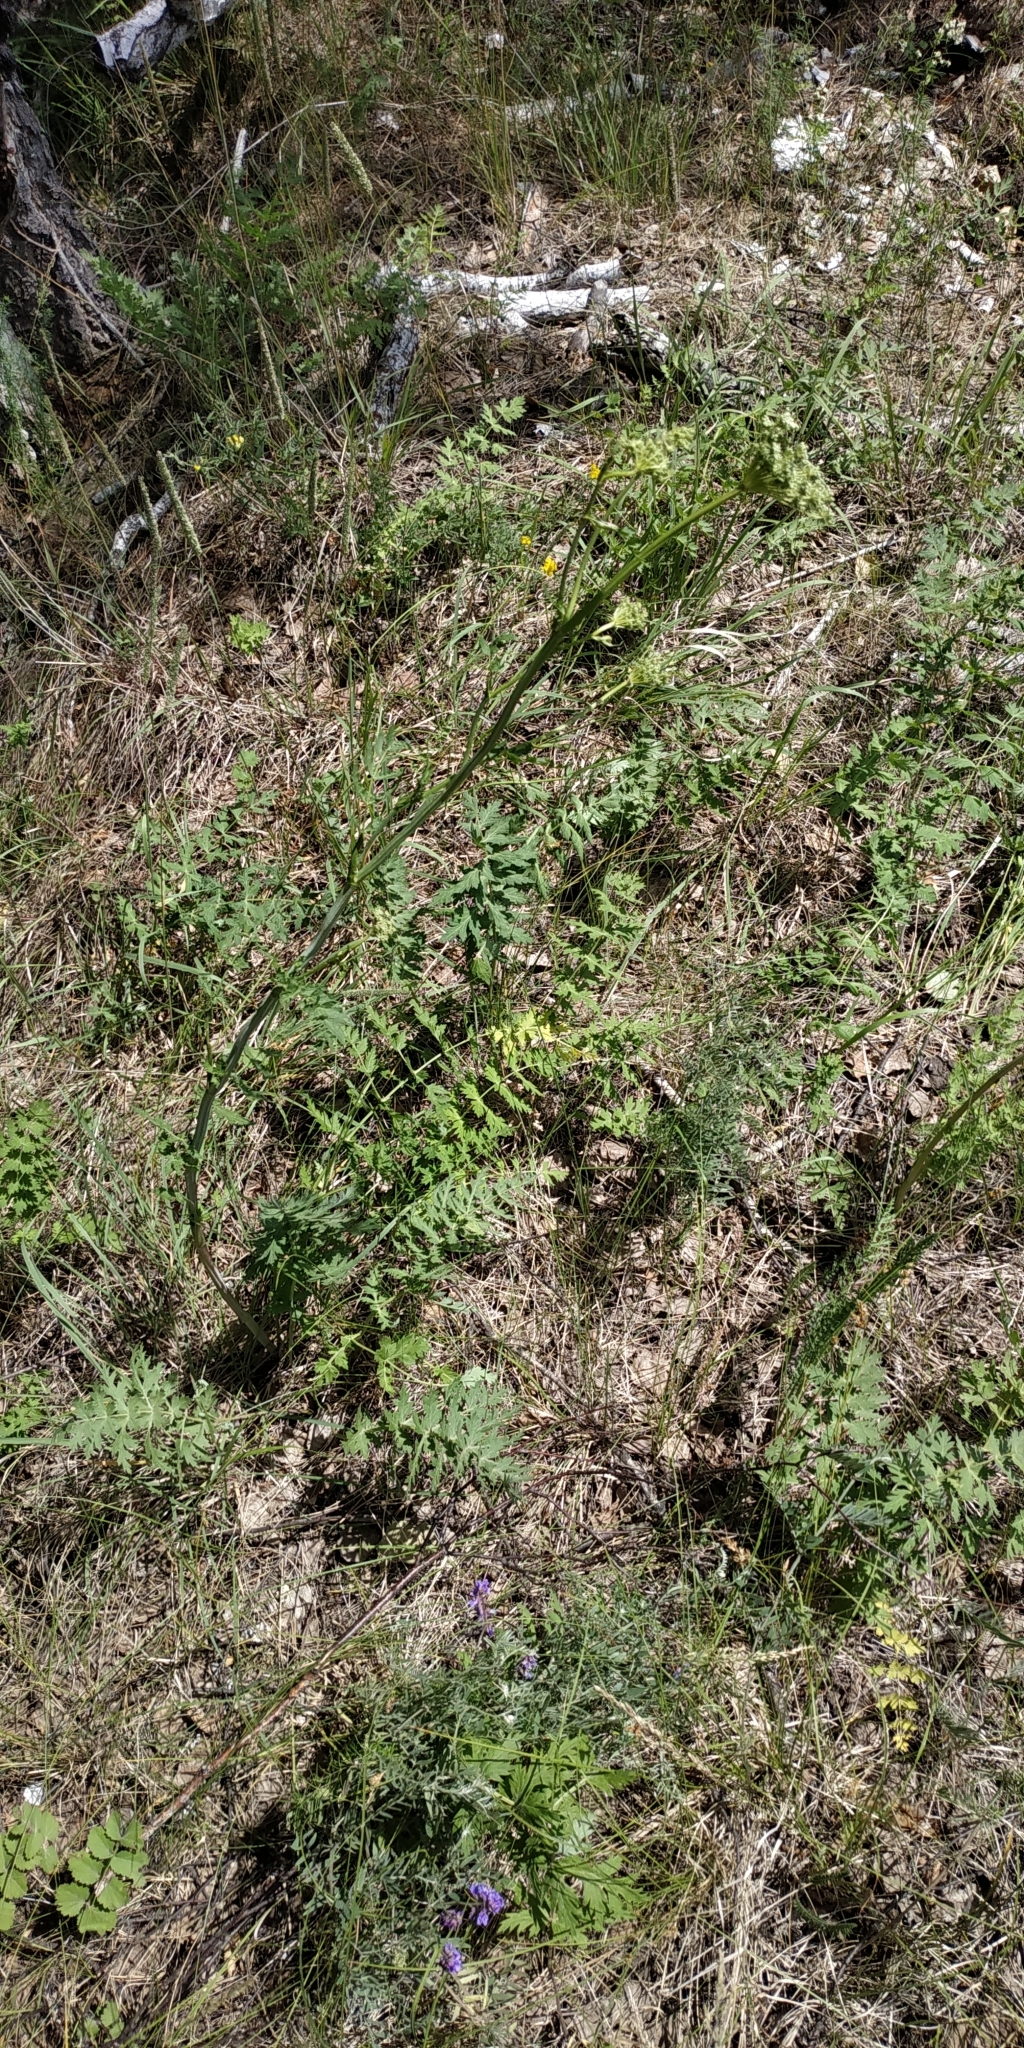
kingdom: Plantae
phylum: Tracheophyta
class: Magnoliopsida
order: Apiales
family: Apiaceae
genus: Seseli
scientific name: Seseli libanotis
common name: Mooncarrot
